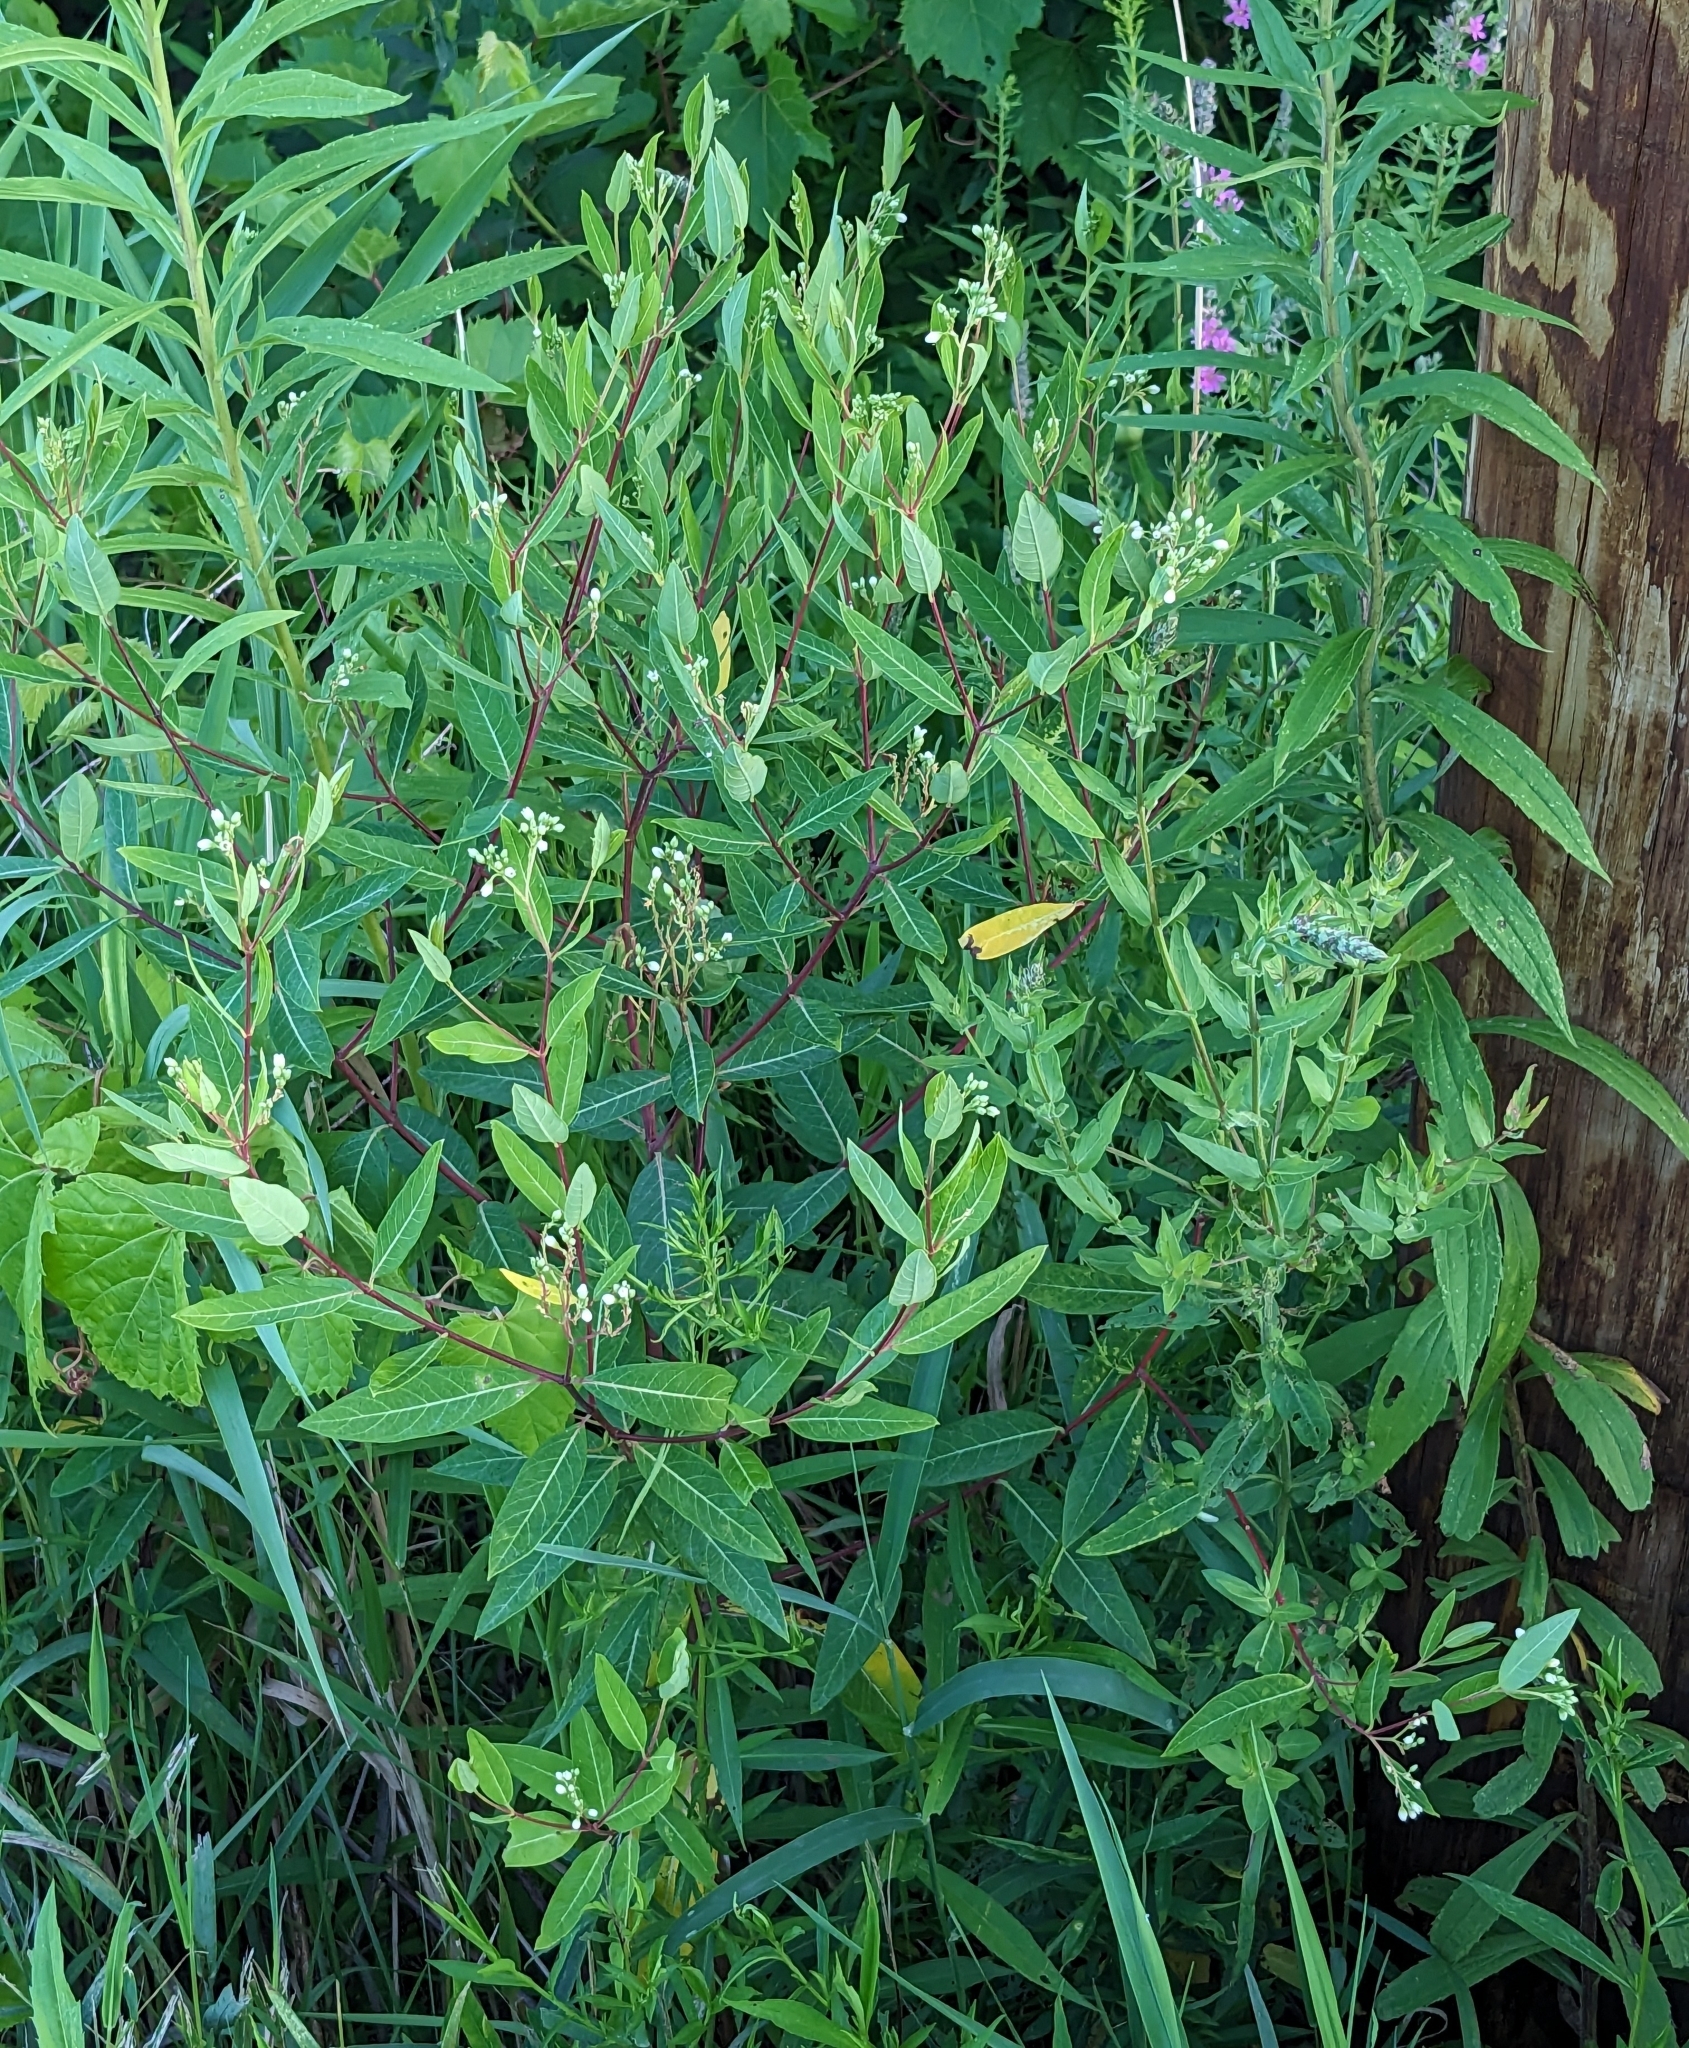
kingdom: Plantae
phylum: Tracheophyta
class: Magnoliopsida
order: Gentianales
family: Apocynaceae
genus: Apocynum
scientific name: Apocynum cannabinum
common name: Hemp dogbane
